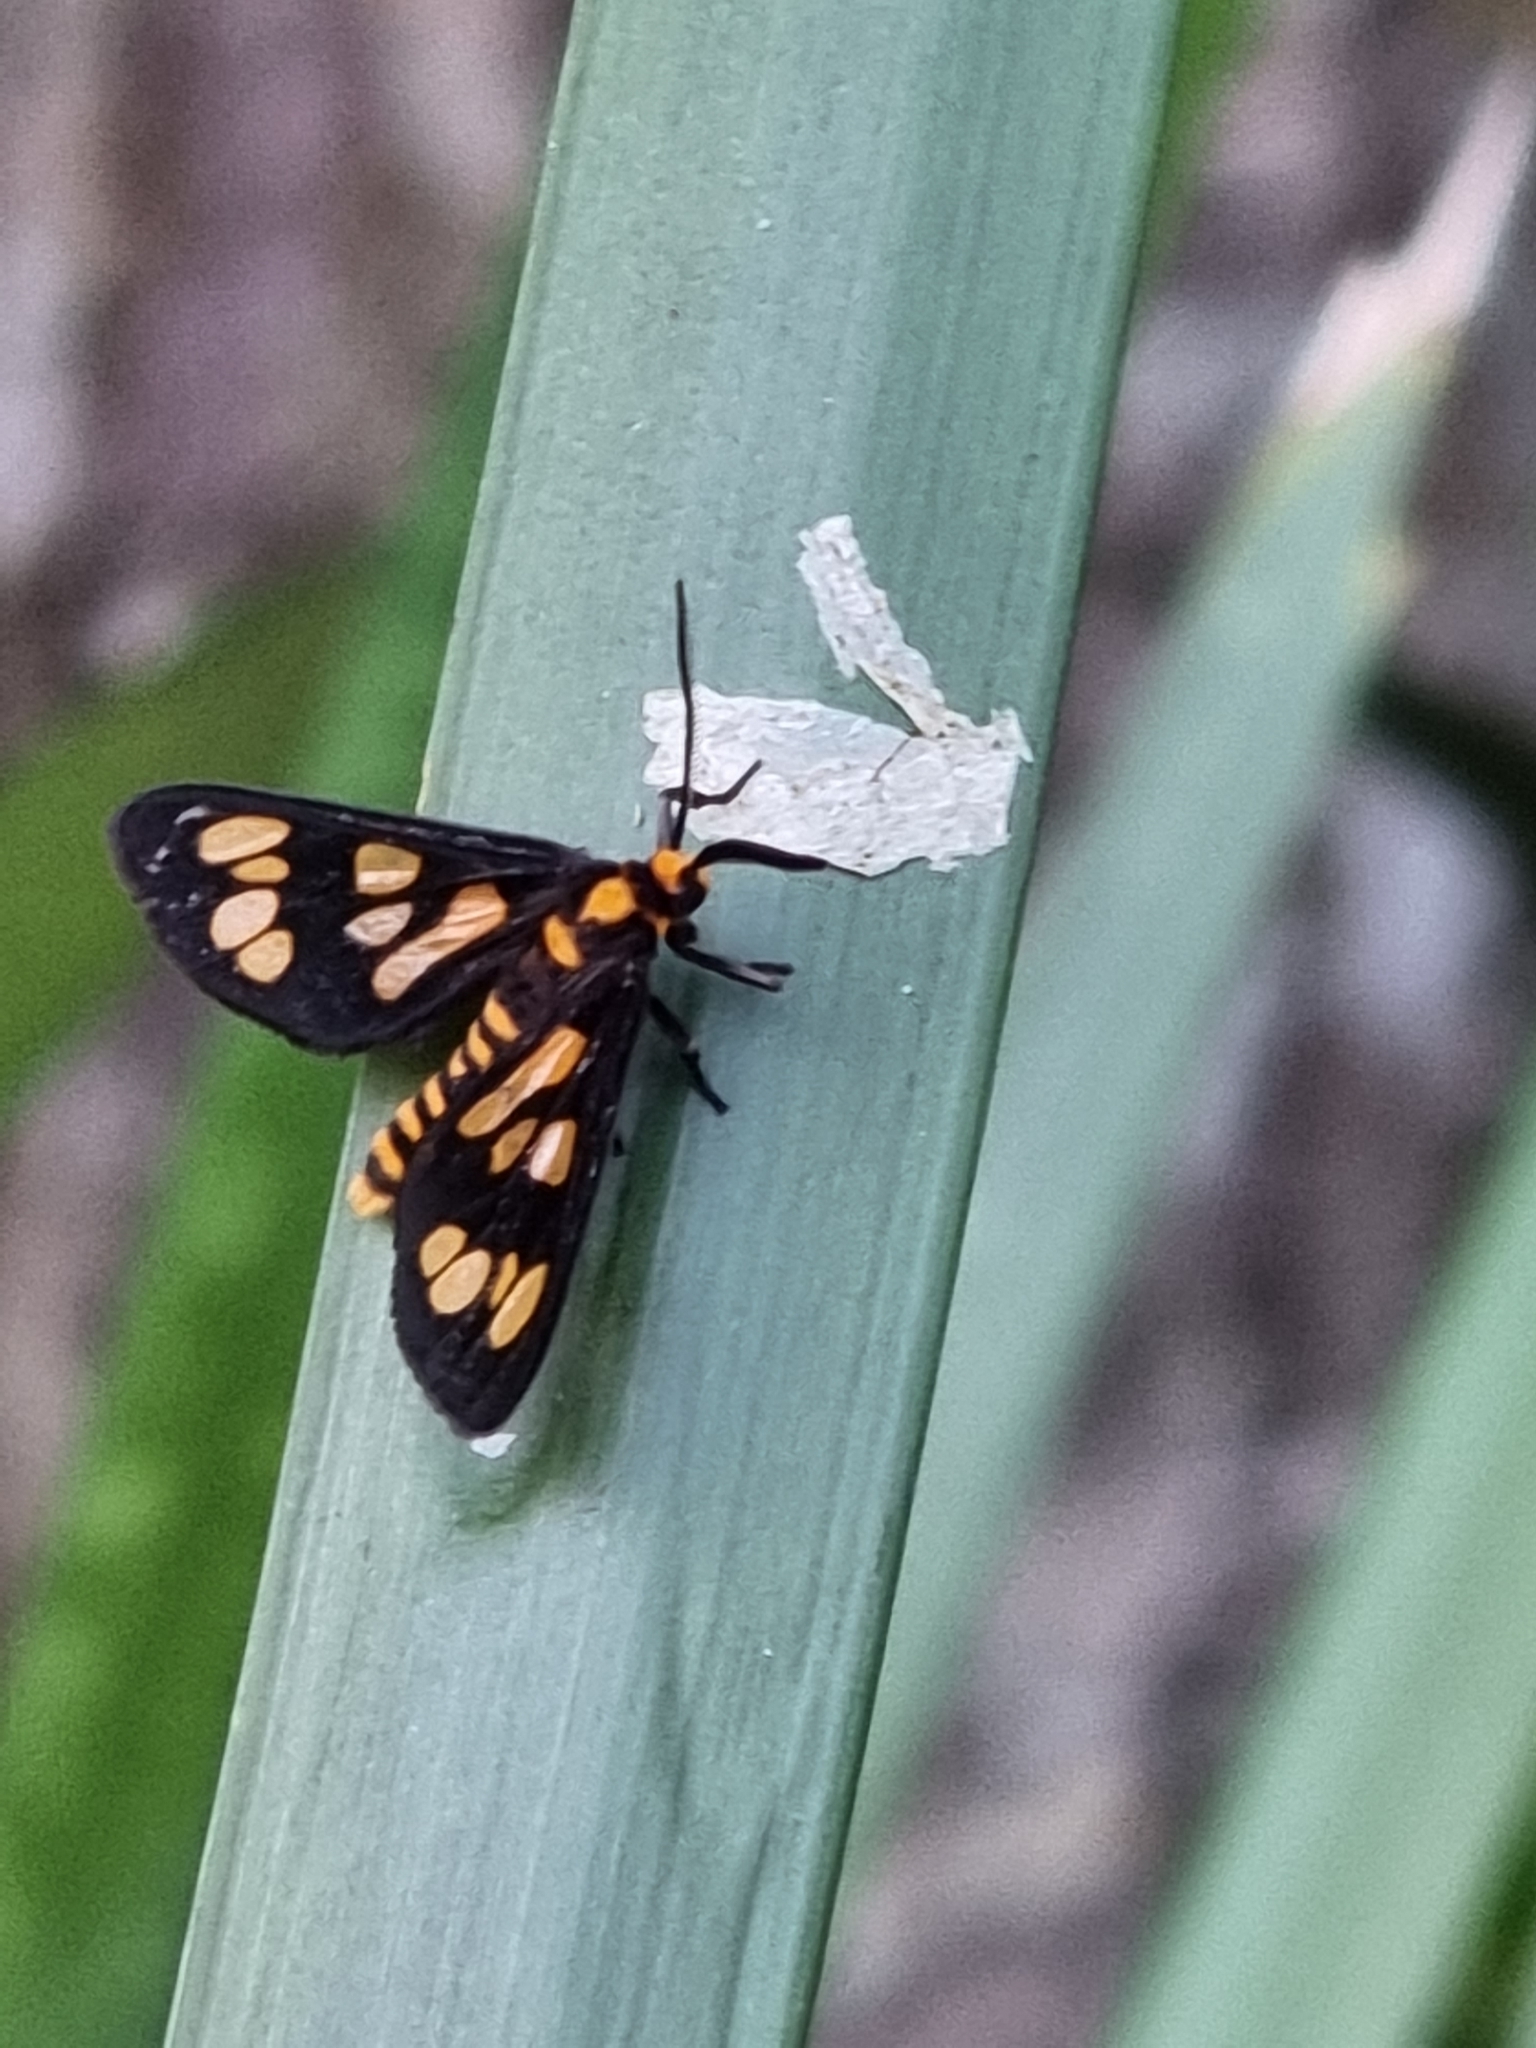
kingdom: Animalia
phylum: Arthropoda
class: Insecta
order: Lepidoptera
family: Erebidae
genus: Eressa
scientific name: Eressa geographica
